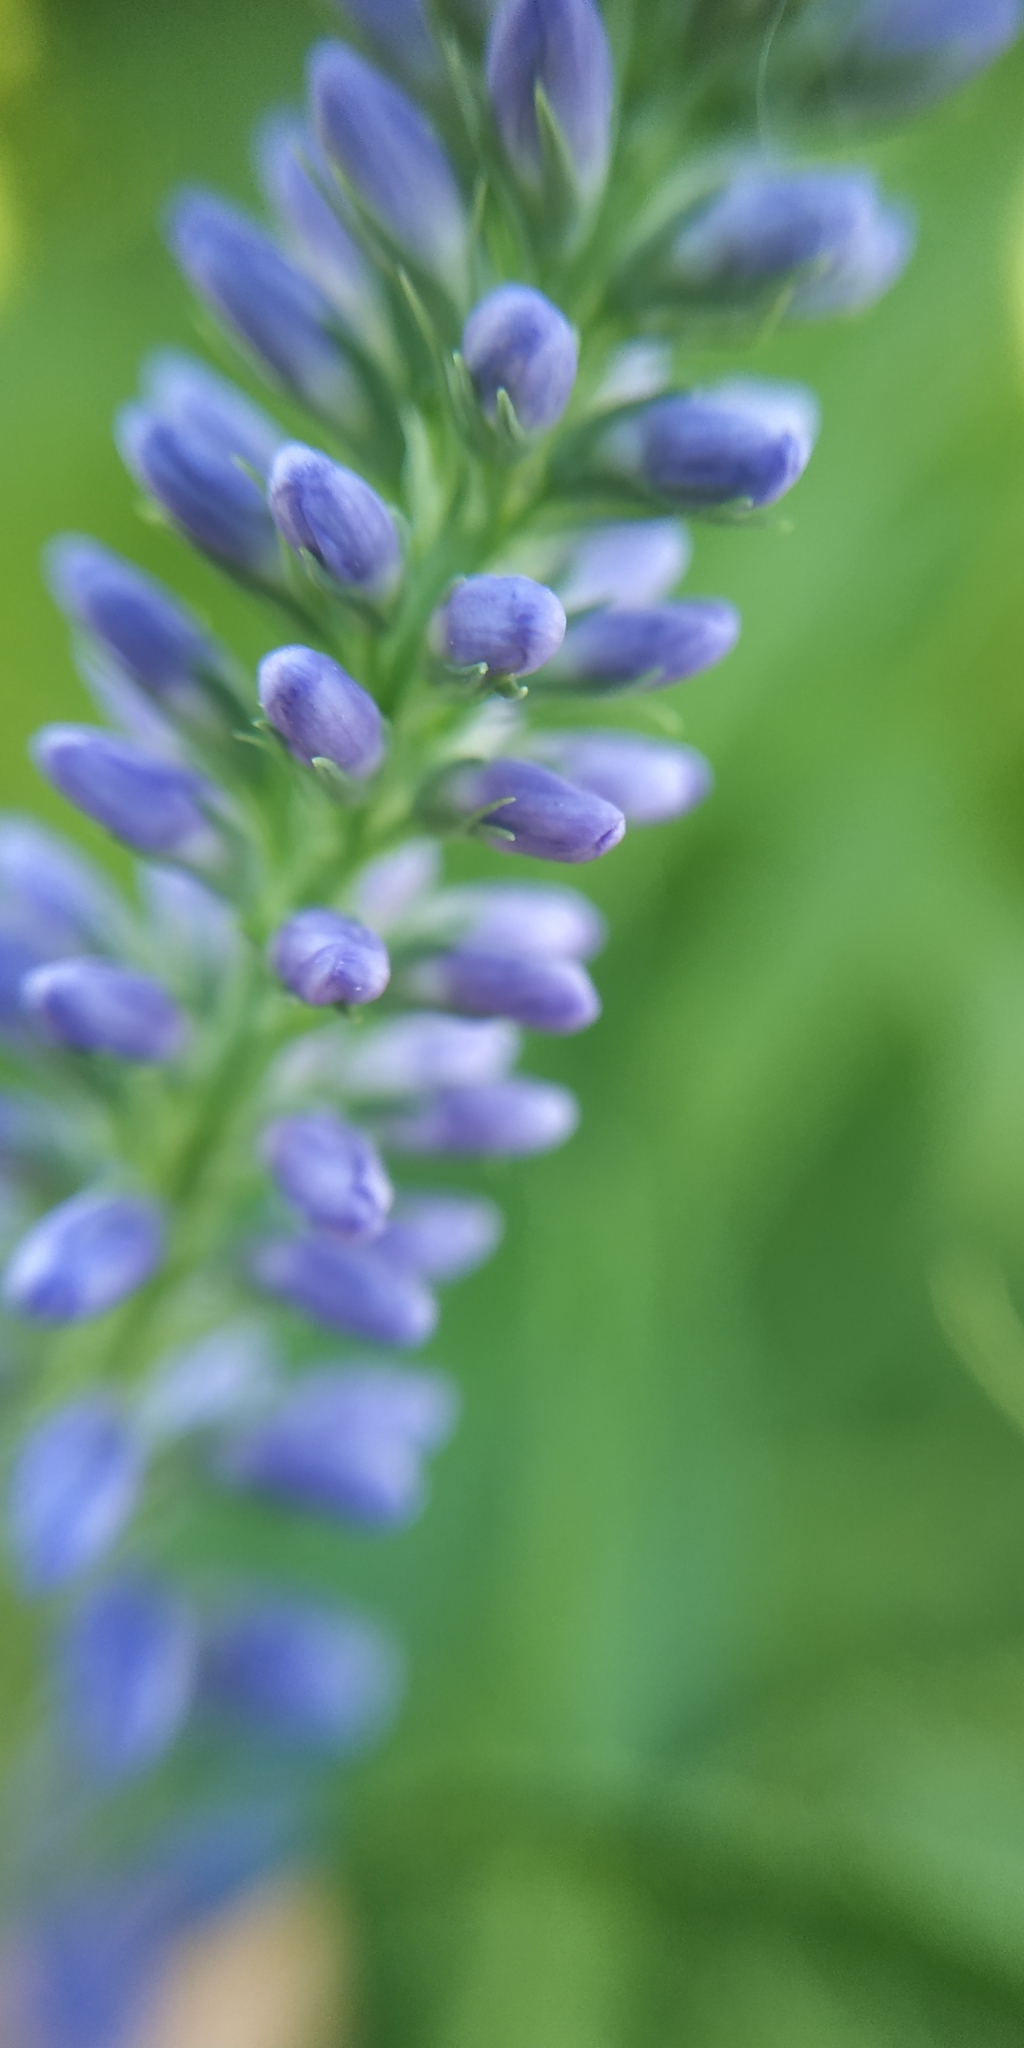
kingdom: Plantae
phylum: Tracheophyta
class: Magnoliopsida
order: Lamiales
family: Plantaginaceae
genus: Veronica
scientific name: Veronica longifolia
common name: Garden speedwell
